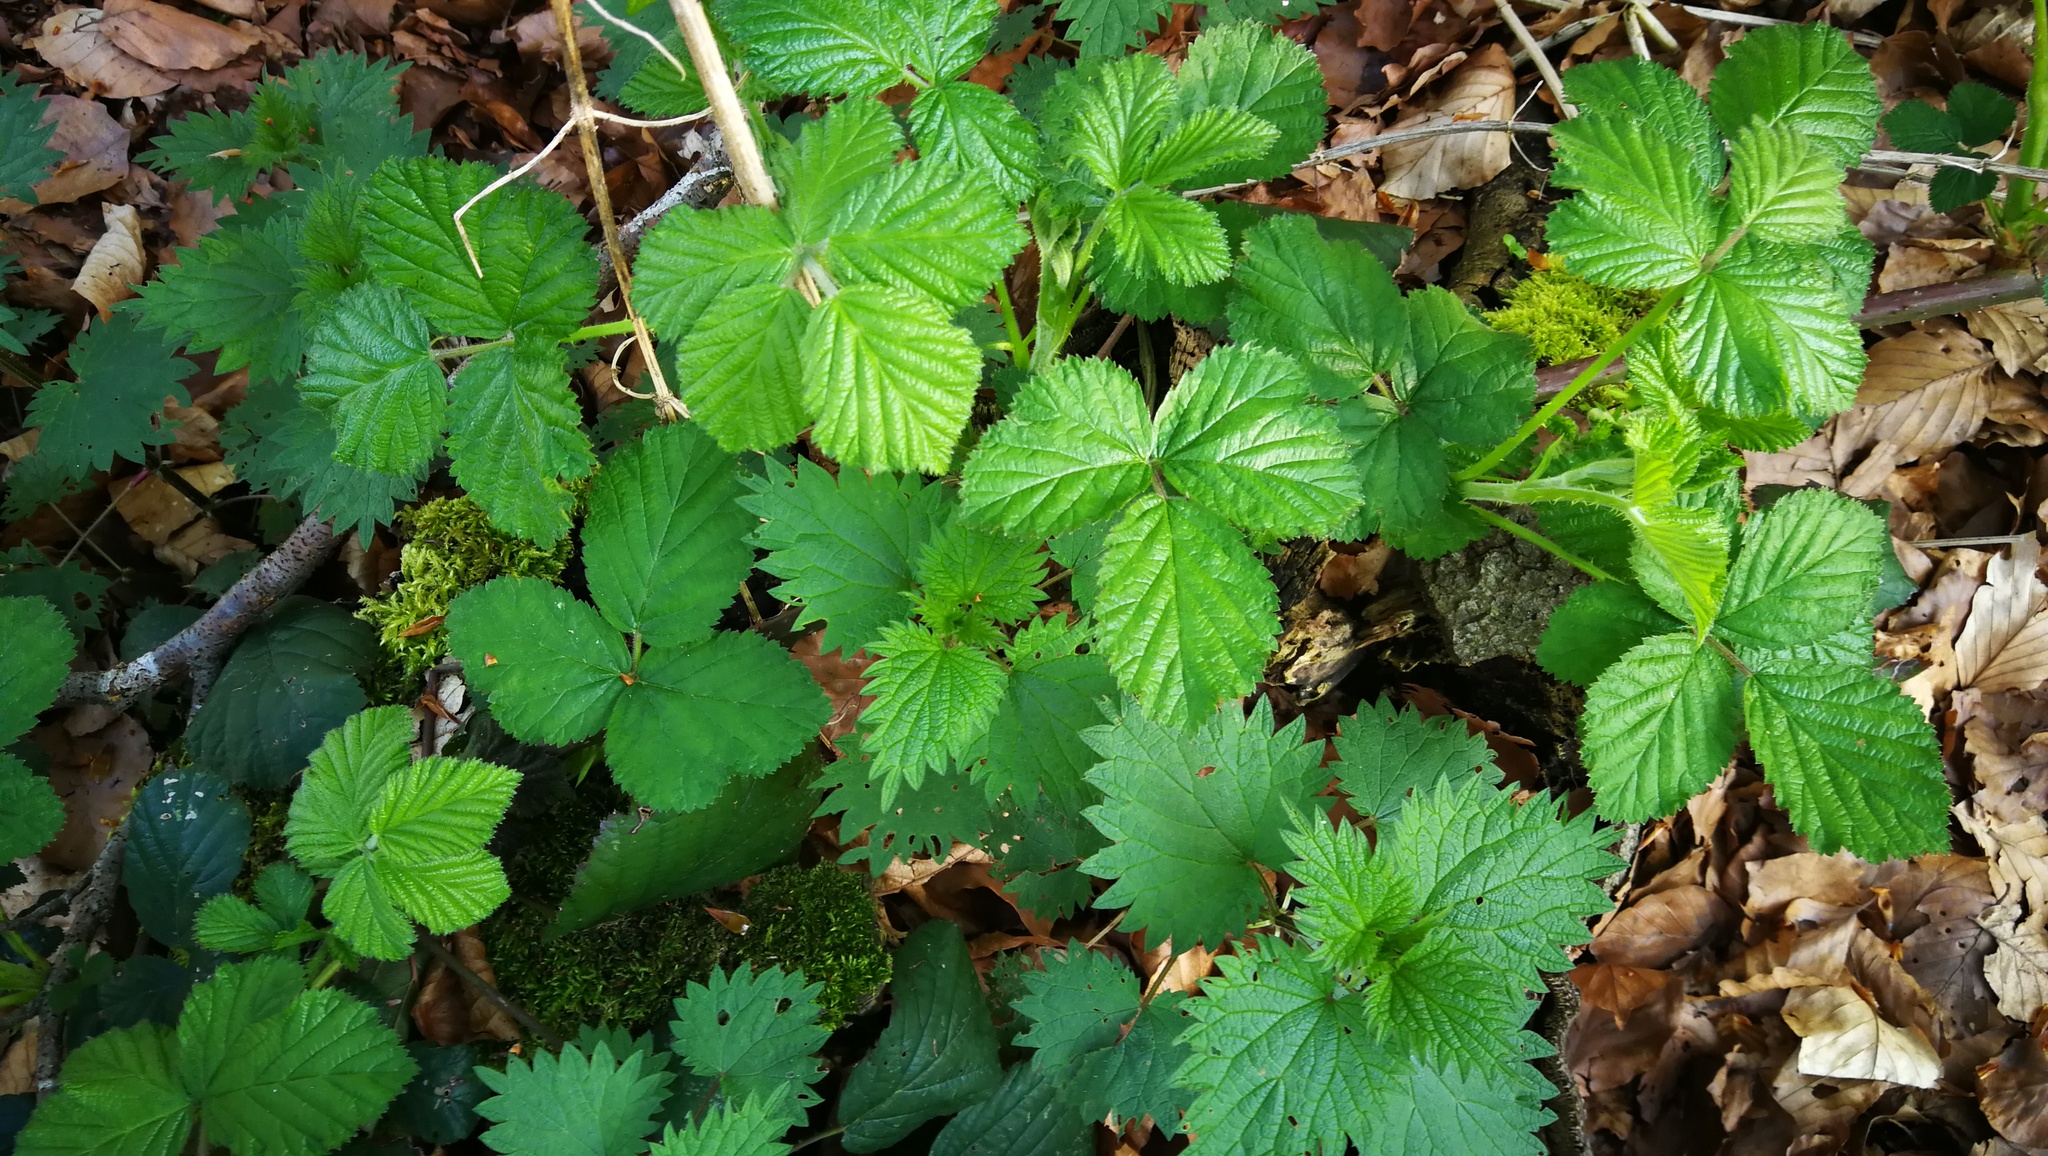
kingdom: Plantae
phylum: Tracheophyta
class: Magnoliopsida
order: Rosales
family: Urticaceae
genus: Urtica
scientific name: Urtica dioica
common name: Common nettle
